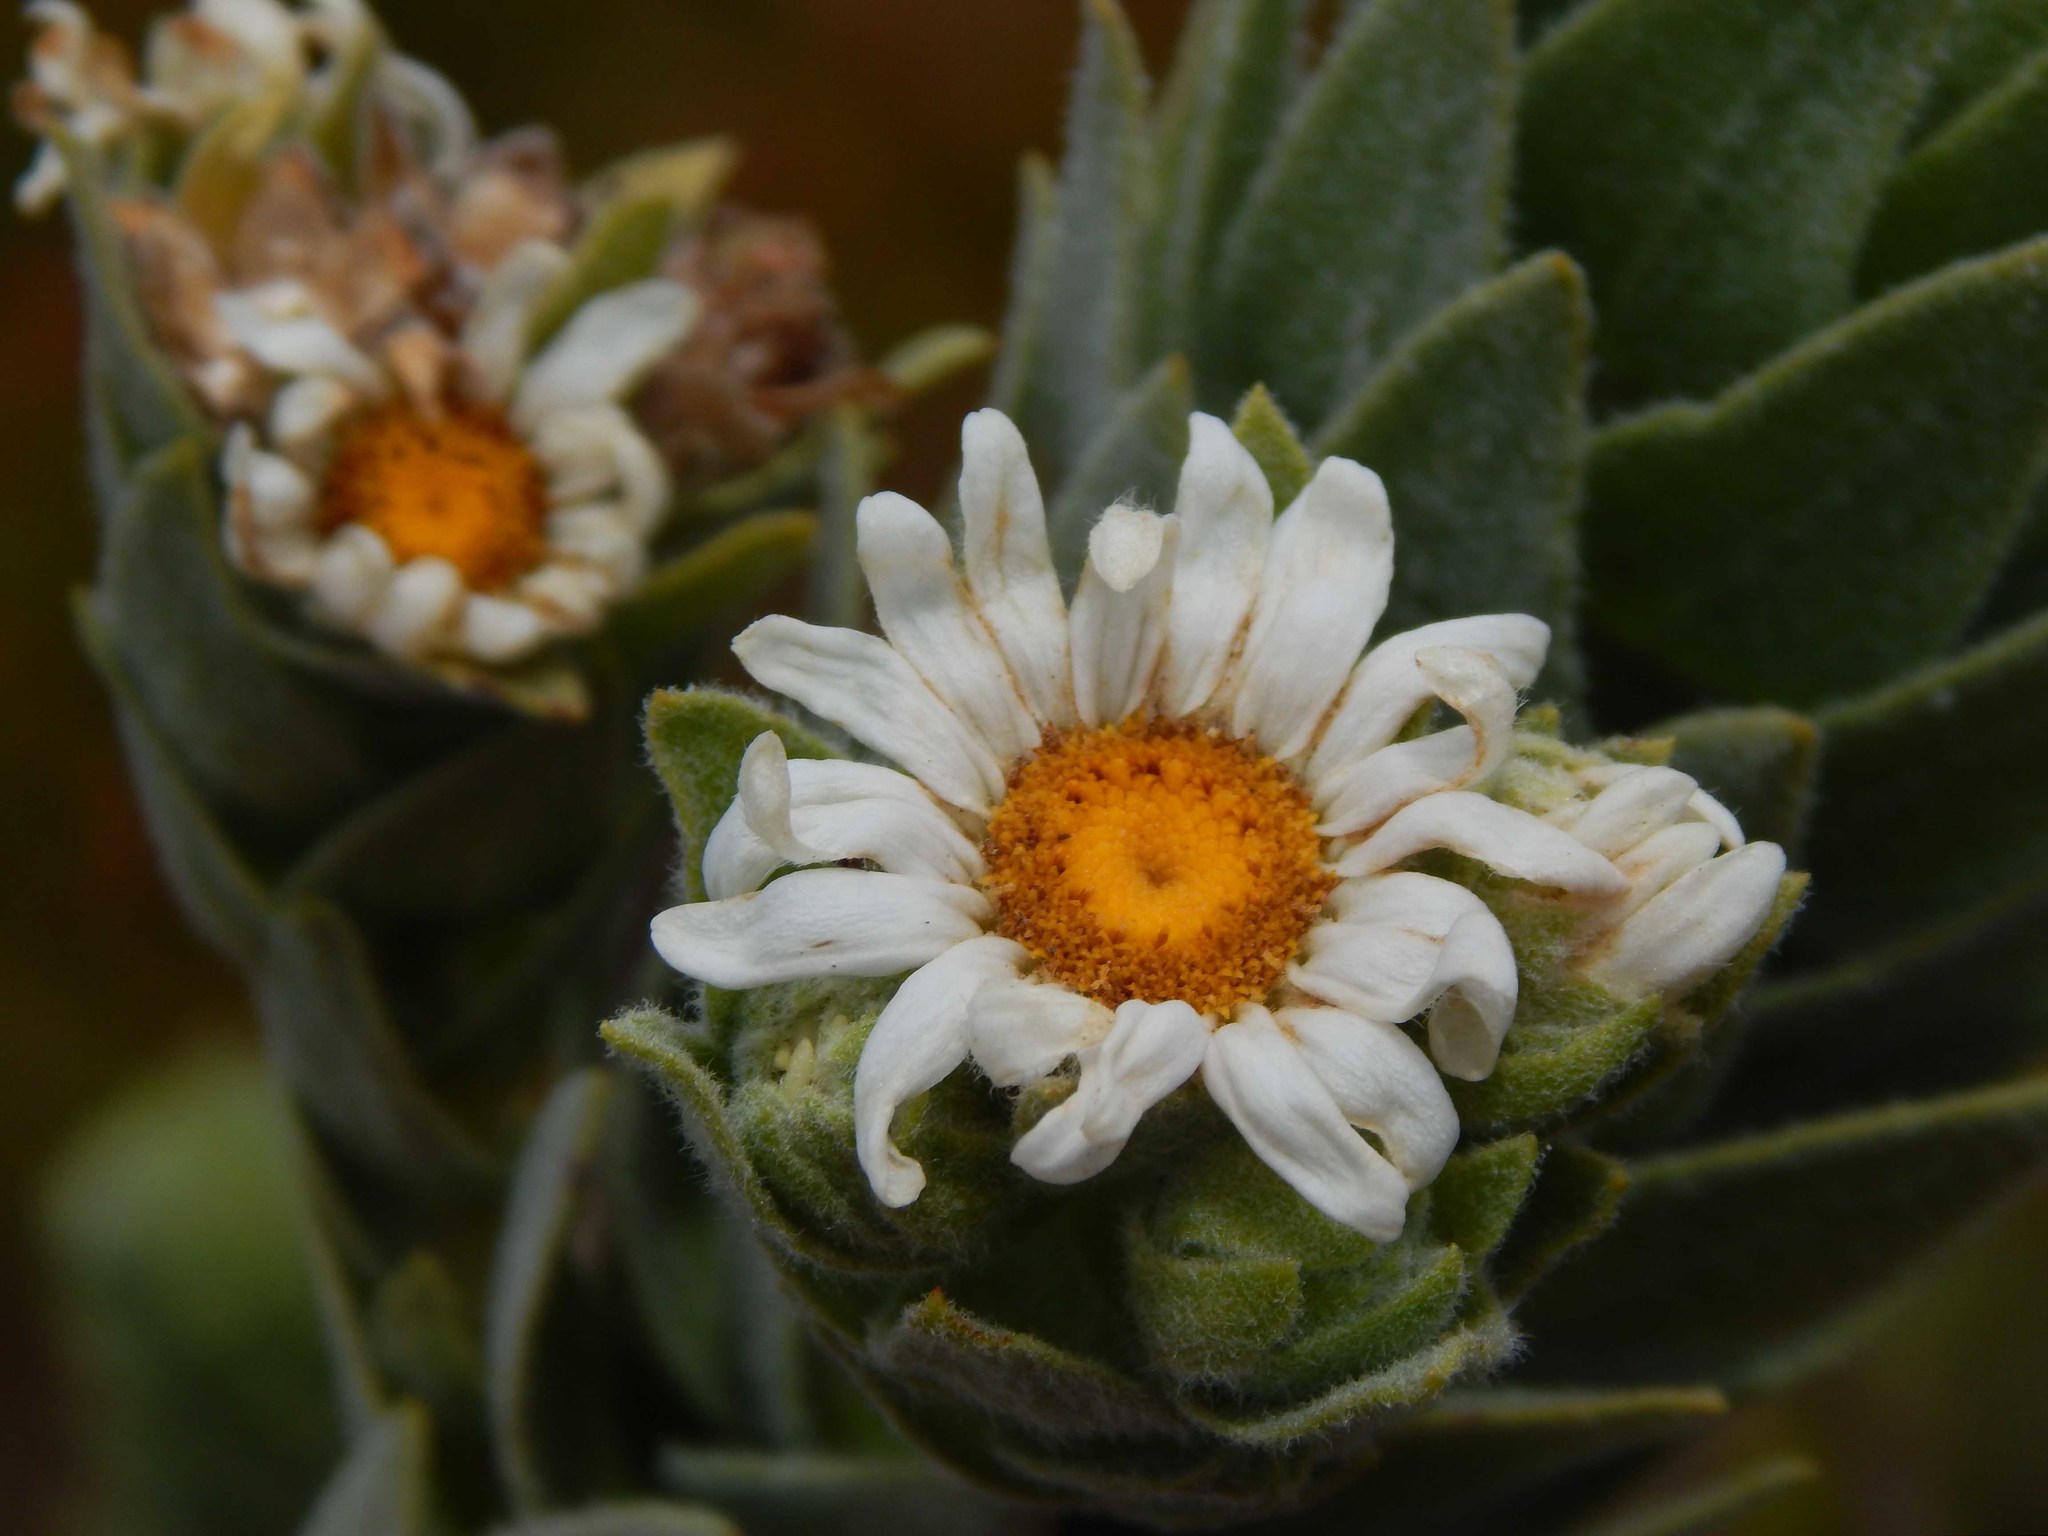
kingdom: Plantae
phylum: Tracheophyta
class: Magnoliopsida
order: Asterales
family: Asteraceae
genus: Osmitopsis
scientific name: Osmitopsis asteriscoides
